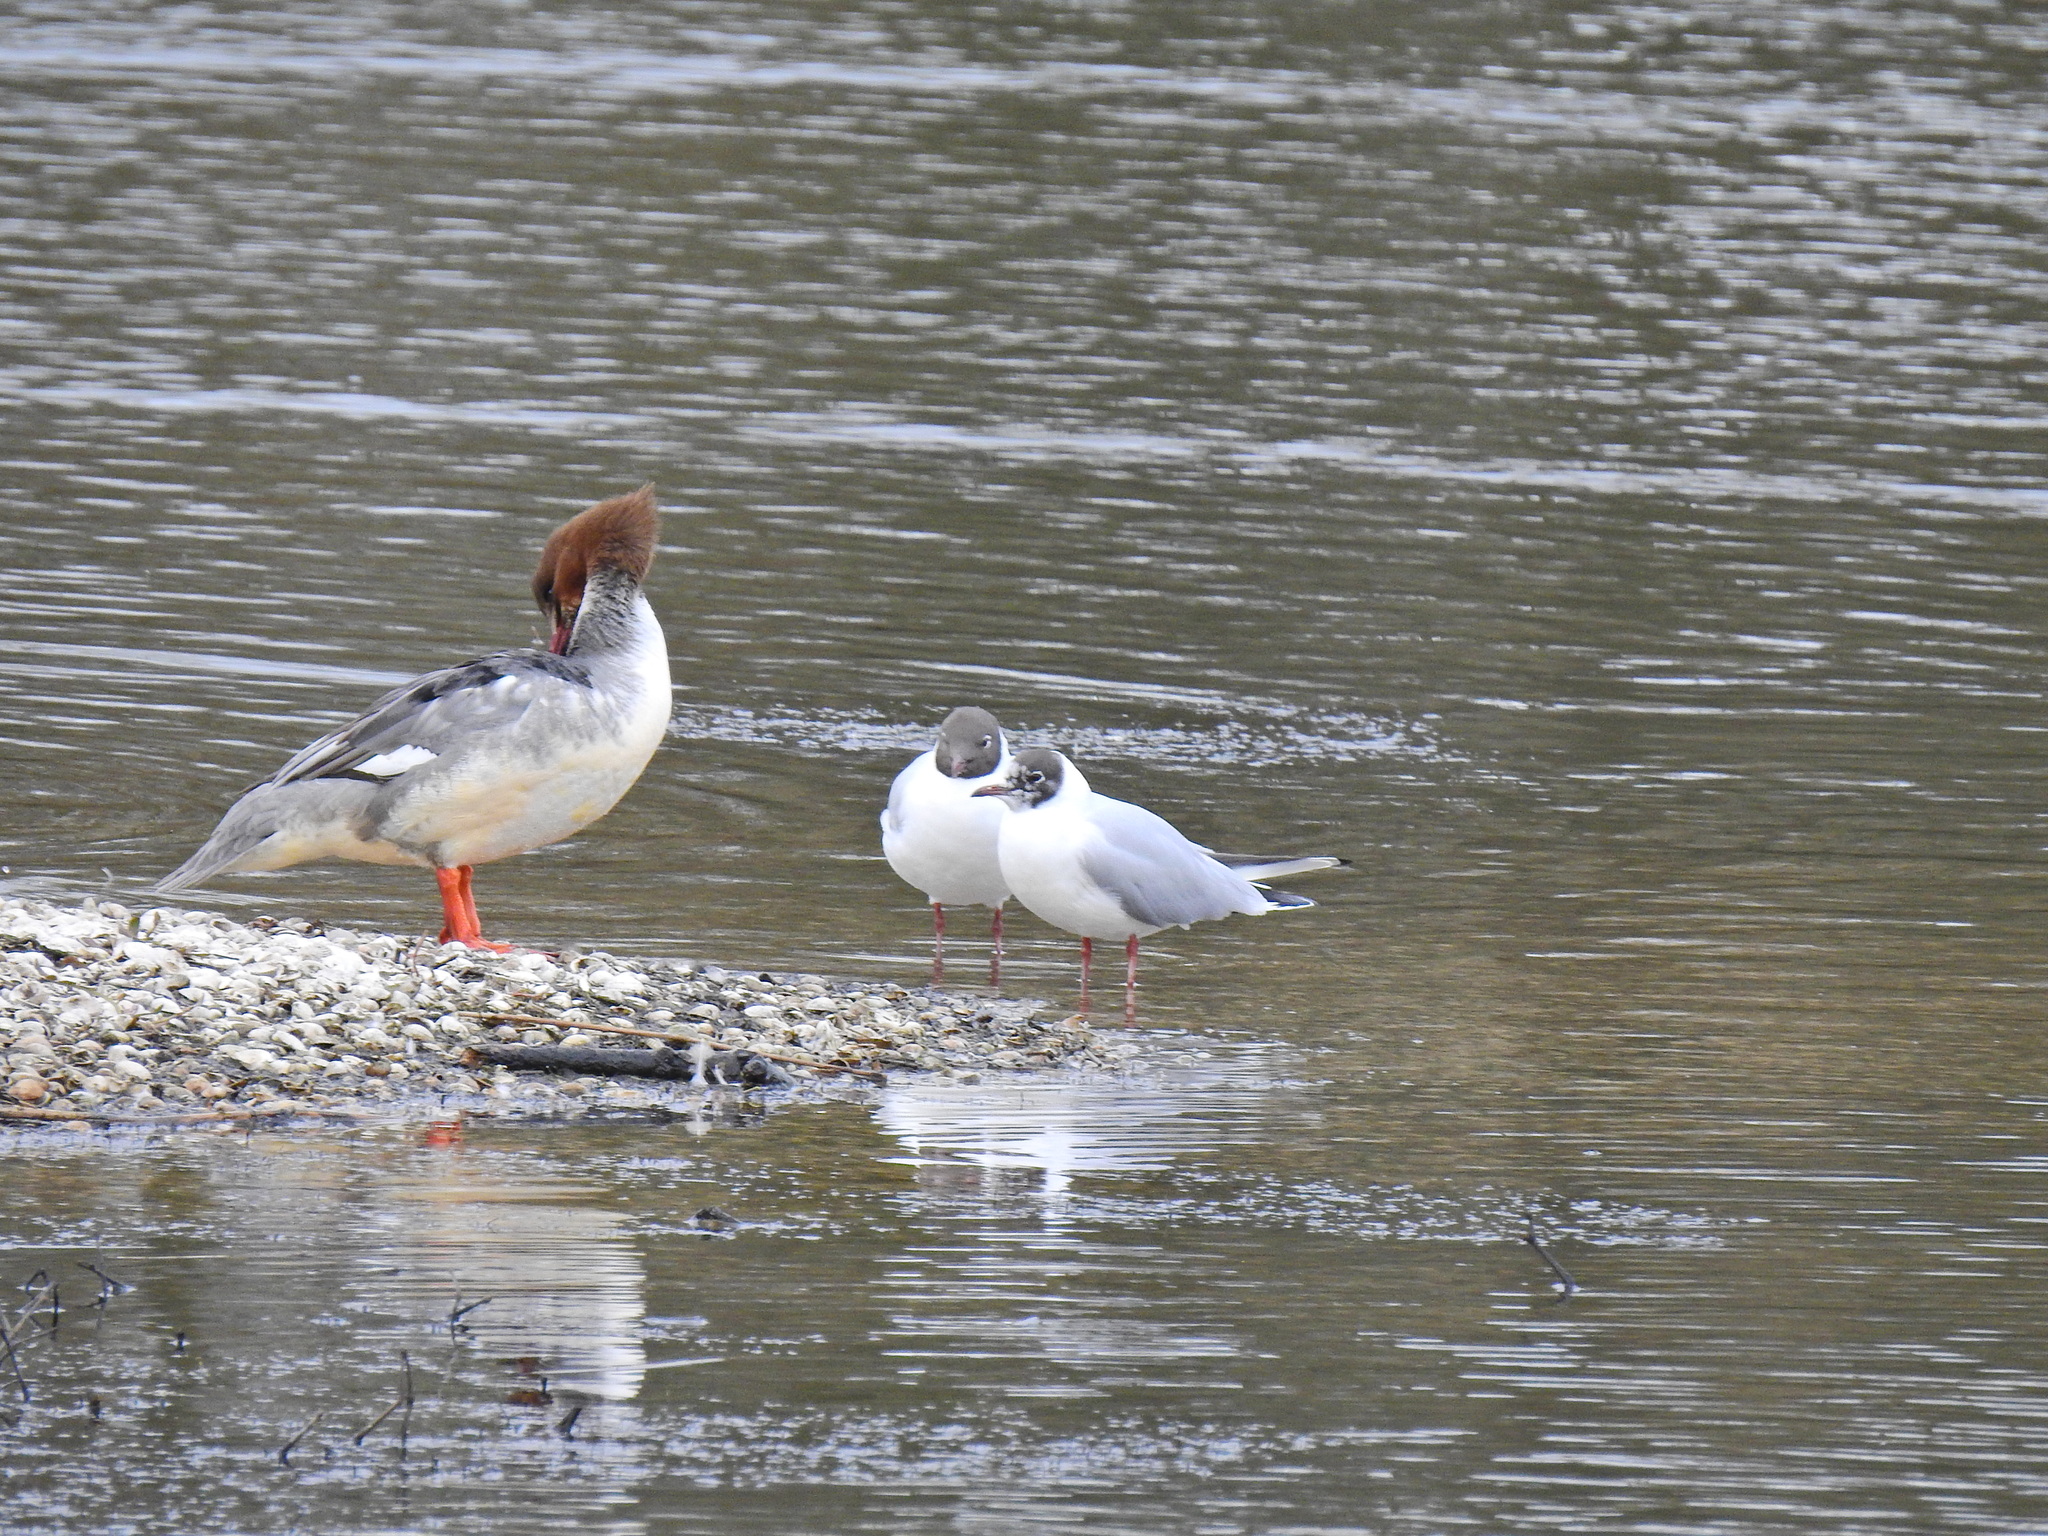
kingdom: Animalia
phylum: Chordata
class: Aves
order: Charadriiformes
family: Laridae
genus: Chroicocephalus
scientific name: Chroicocephalus ridibundus
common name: Black-headed gull
